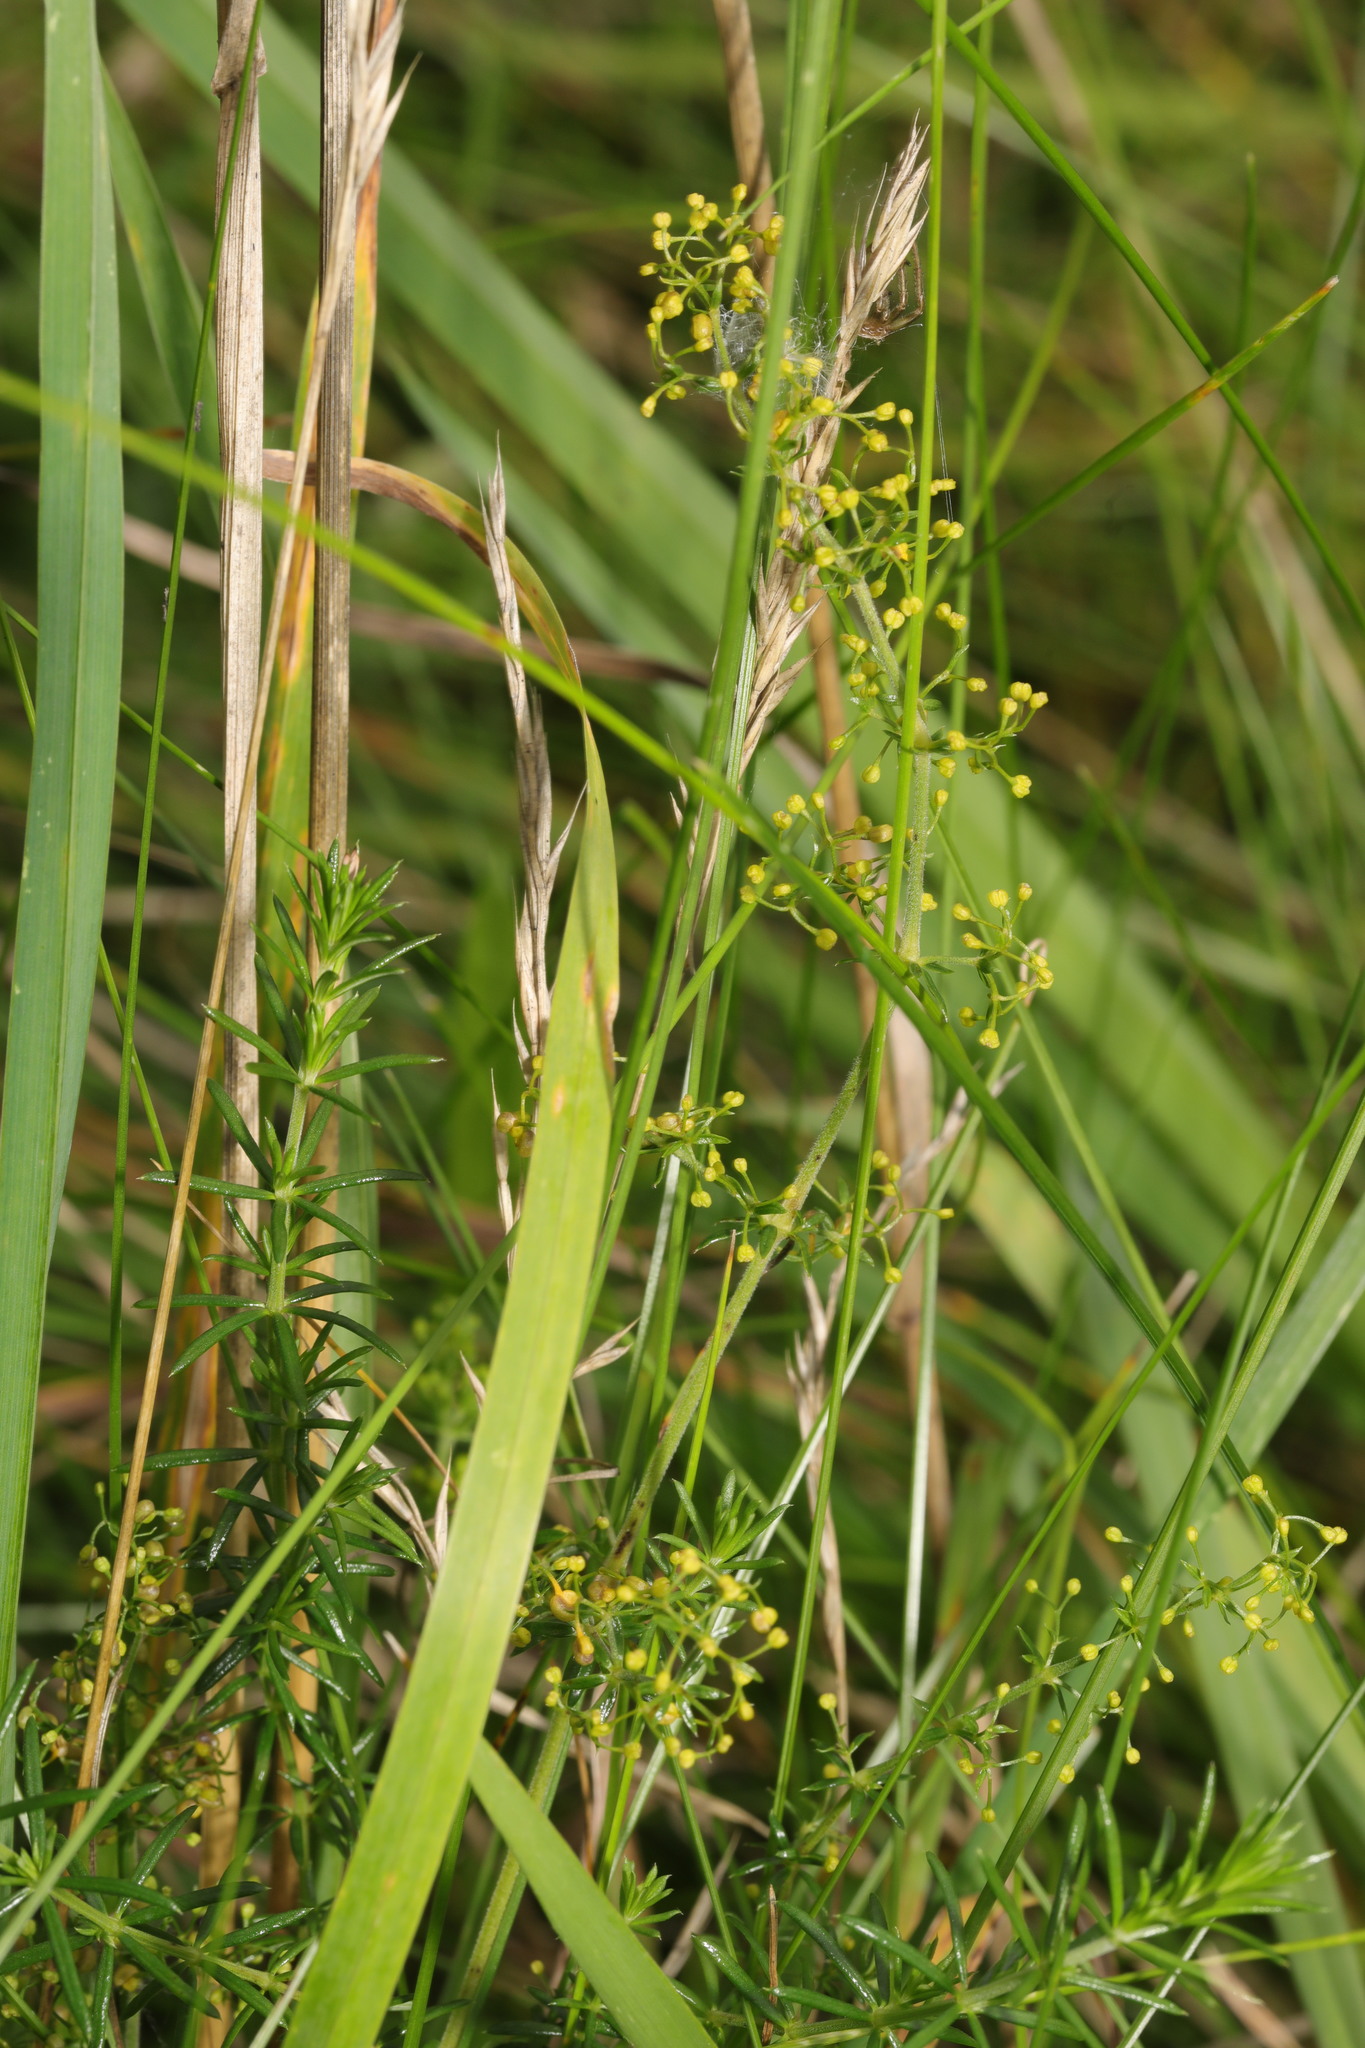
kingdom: Plantae
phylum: Tracheophyta
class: Magnoliopsida
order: Gentianales
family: Rubiaceae
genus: Galium
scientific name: Galium verum
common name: Lady's bedstraw
